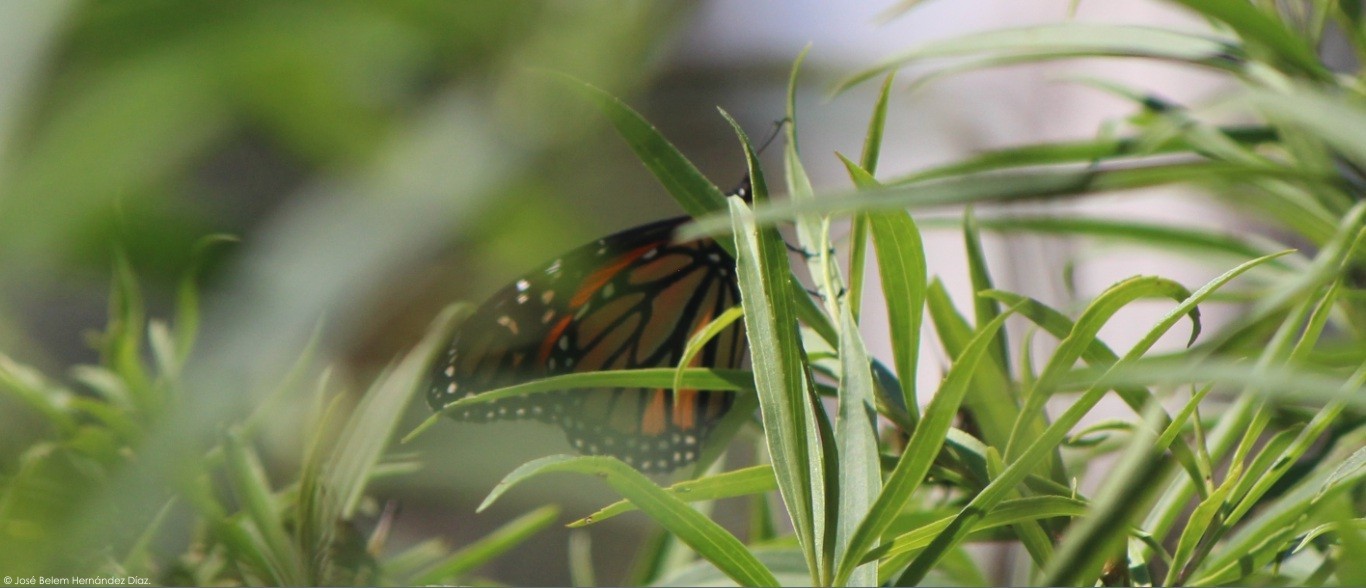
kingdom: Animalia
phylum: Arthropoda
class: Insecta
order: Lepidoptera
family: Nymphalidae
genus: Danaus
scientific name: Danaus plexippus
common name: Monarch
